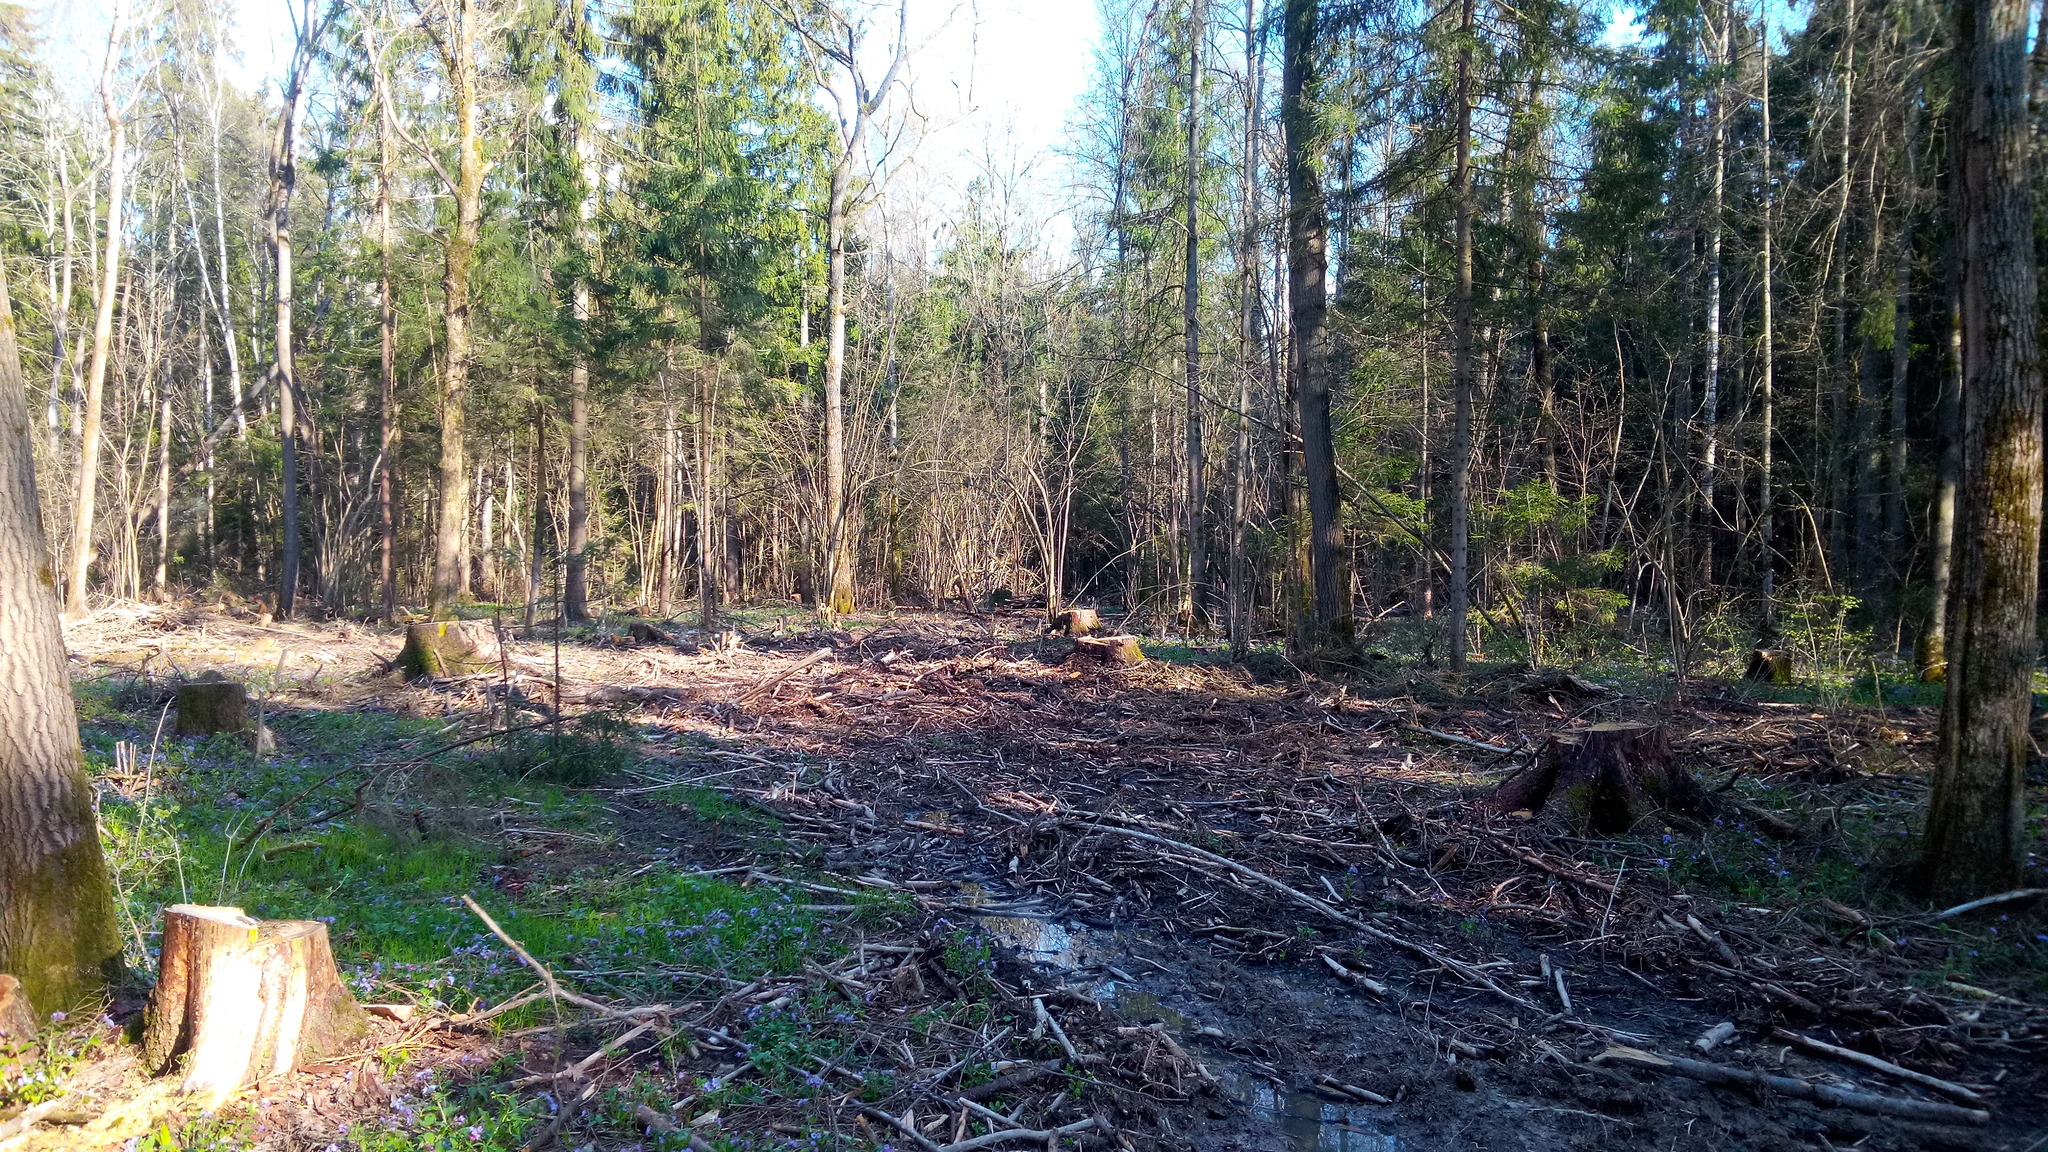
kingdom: Plantae
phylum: Tracheophyta
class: Magnoliopsida
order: Fagales
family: Betulaceae
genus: Corylus
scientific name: Corylus avellana
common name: European hazel
